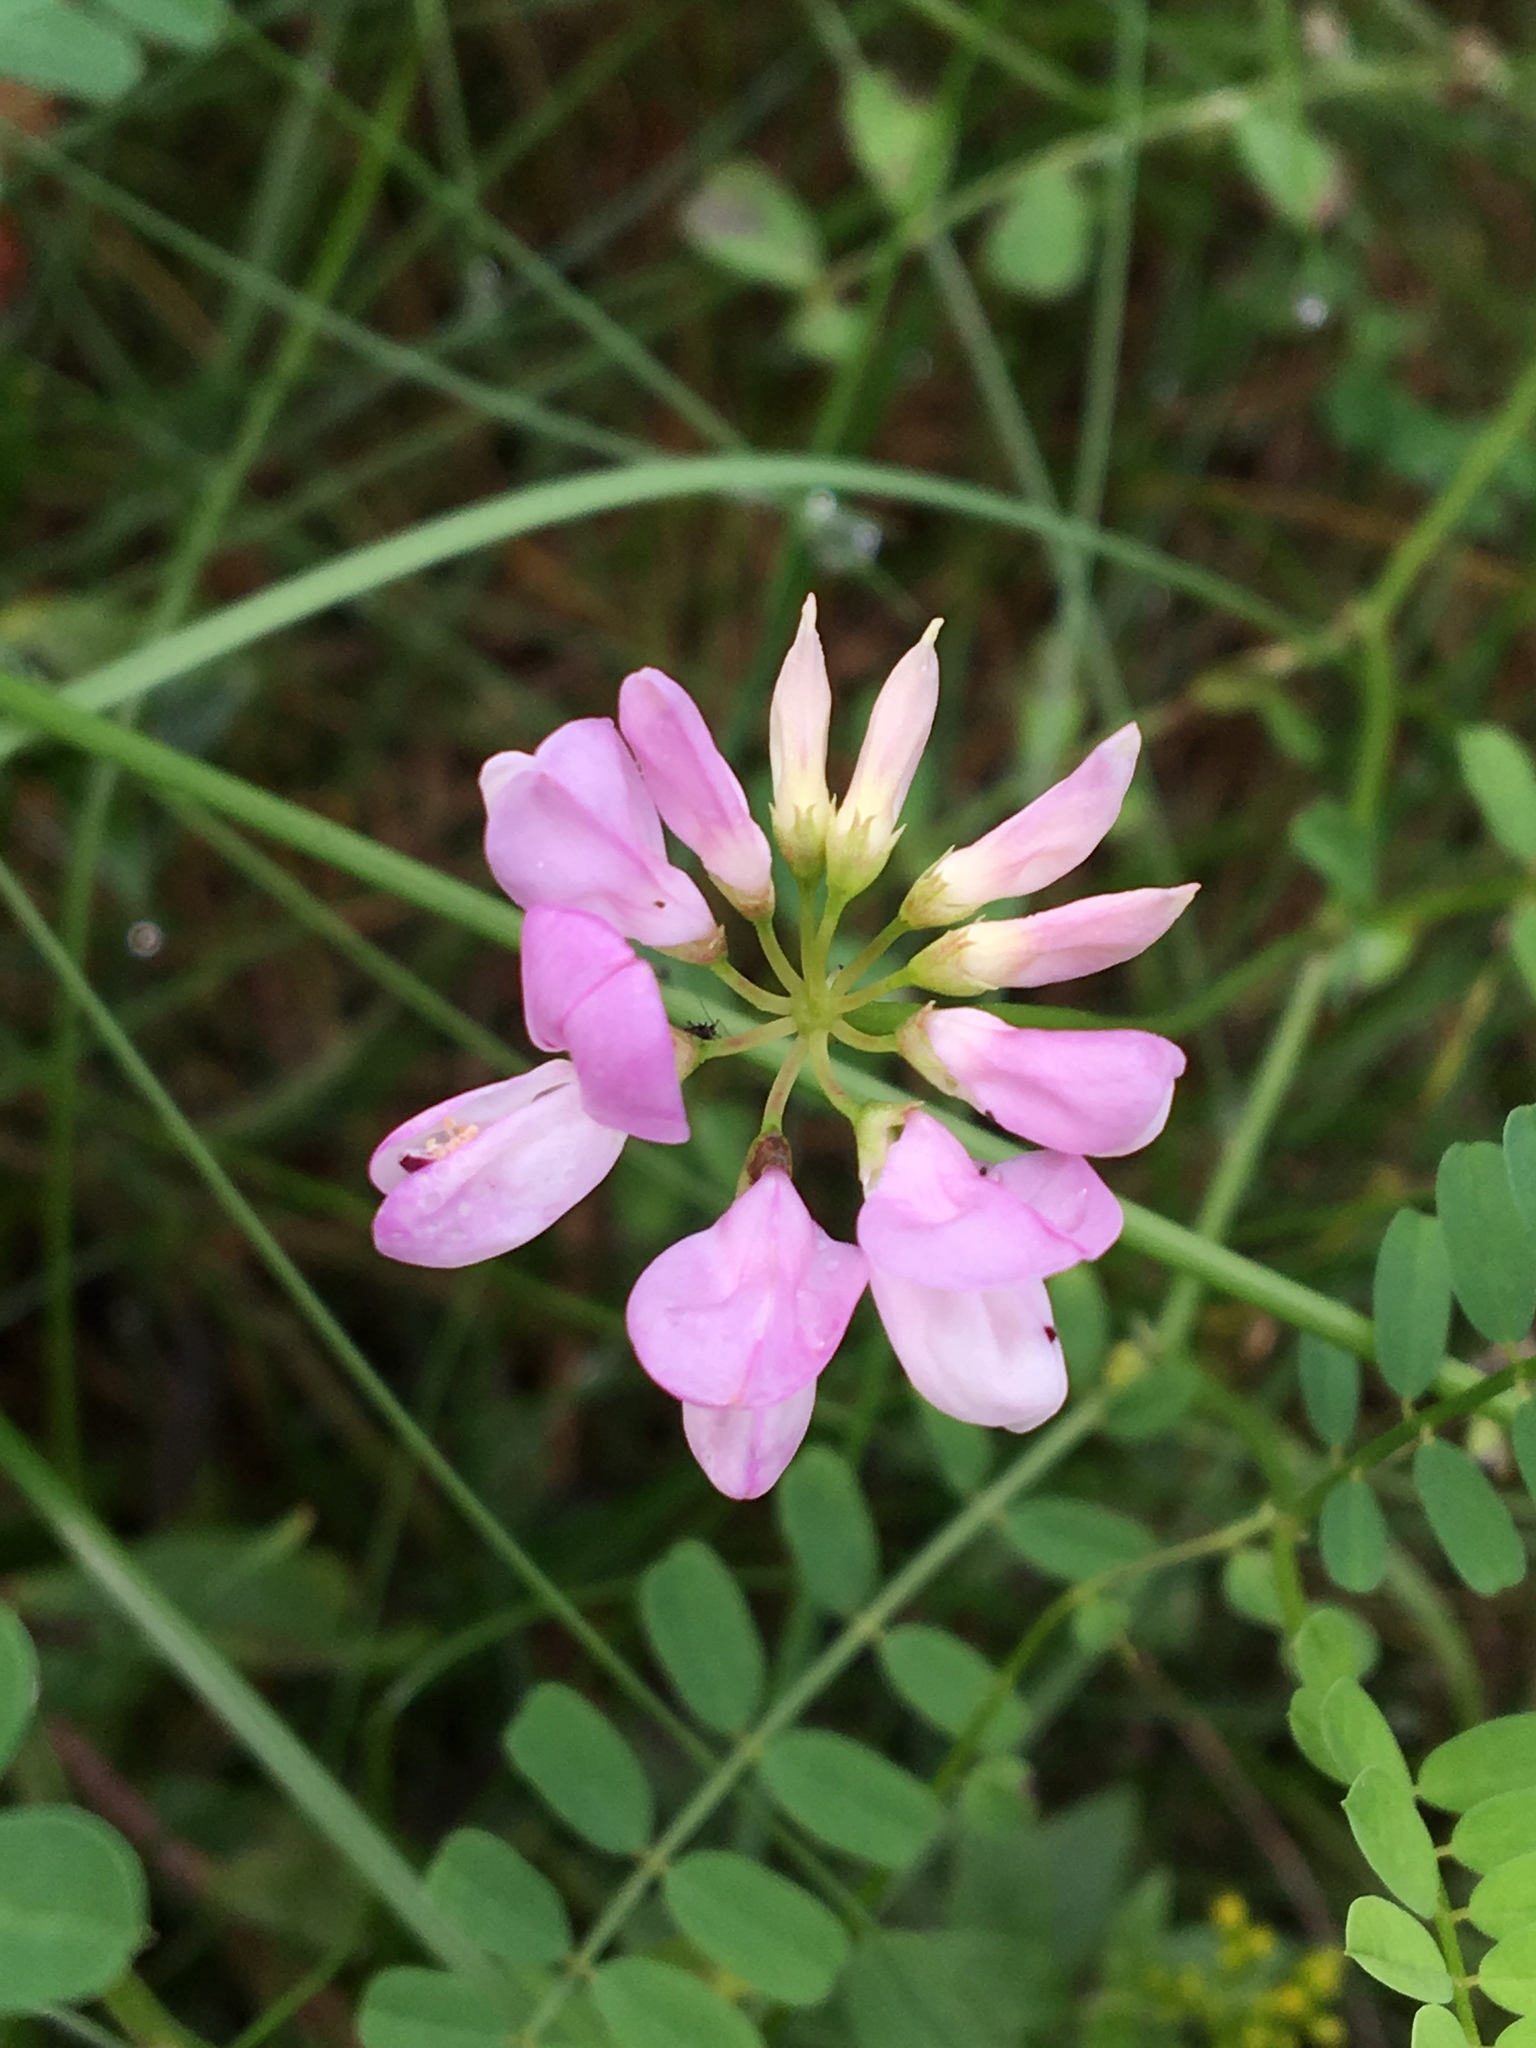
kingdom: Plantae
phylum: Tracheophyta
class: Magnoliopsida
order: Fabales
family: Fabaceae
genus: Coronilla
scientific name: Coronilla varia
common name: Crownvetch
